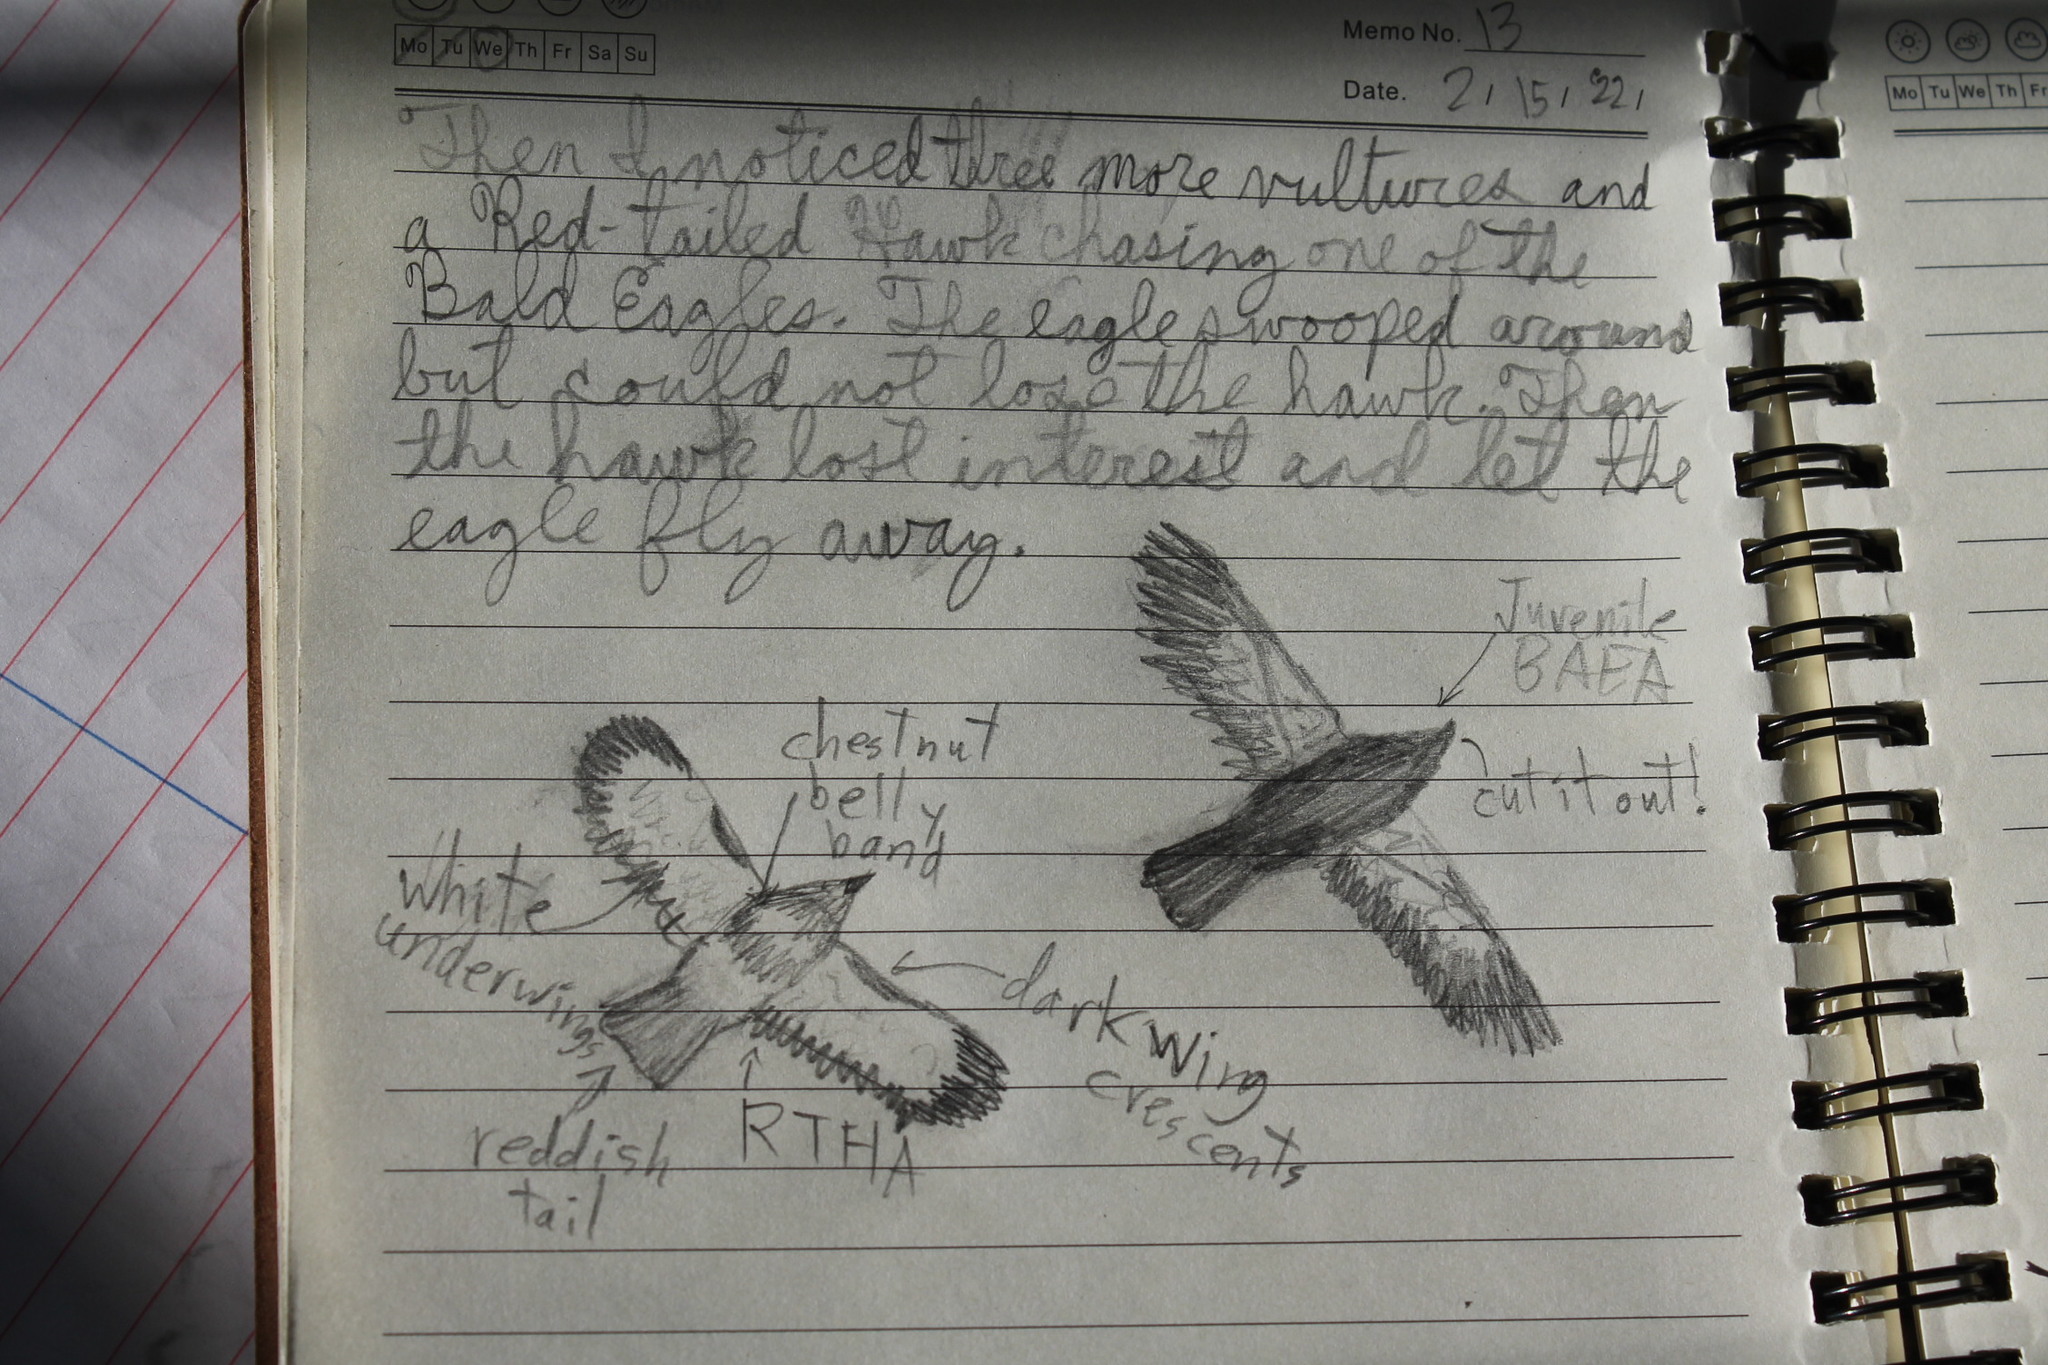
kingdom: Animalia
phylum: Chordata
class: Aves
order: Accipitriformes
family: Accipitridae
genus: Buteo
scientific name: Buteo jamaicensis
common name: Red-tailed hawk
